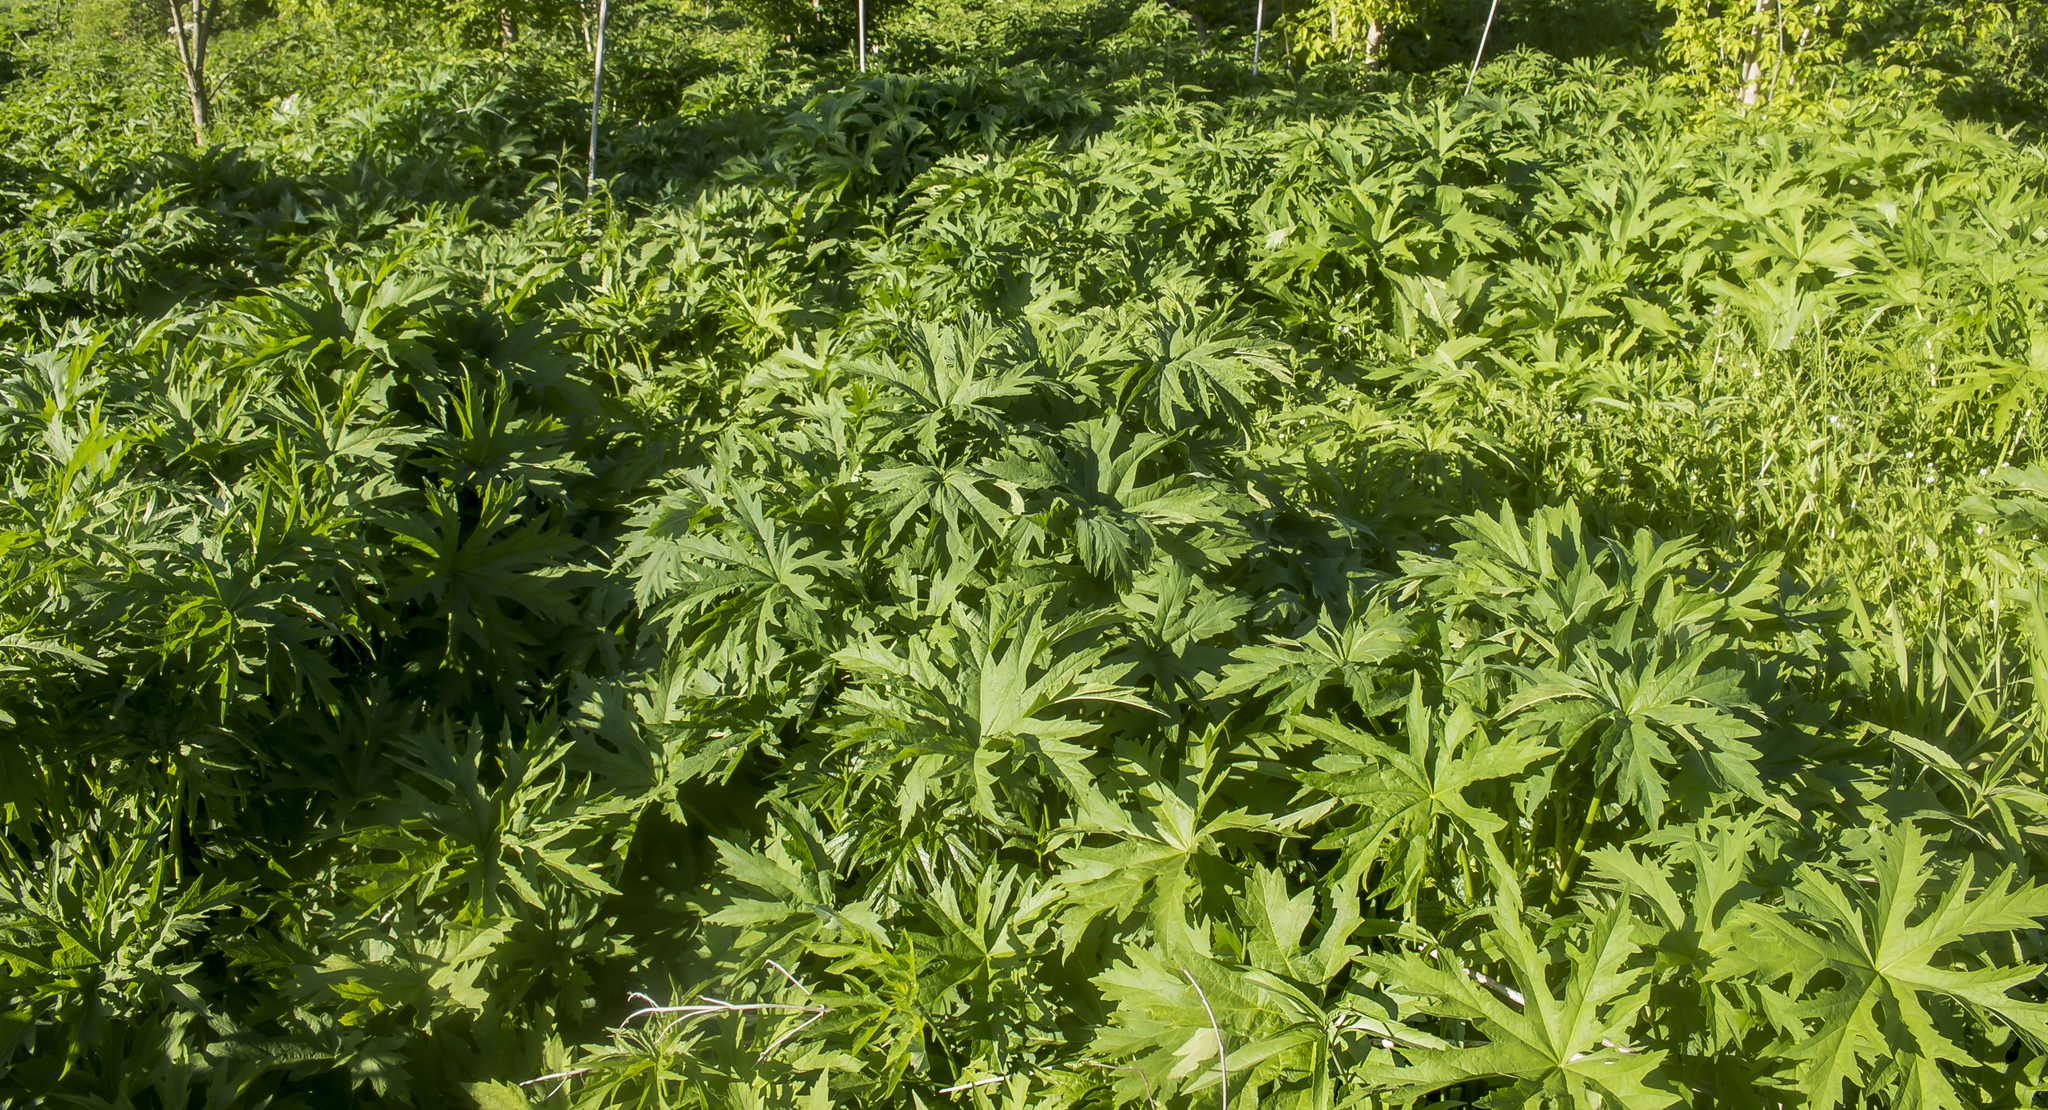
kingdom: Plantae
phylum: Tracheophyta
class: Magnoliopsida
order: Malvales
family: Malvaceae
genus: Napaea
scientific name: Napaea dioica
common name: Glade-mallow
